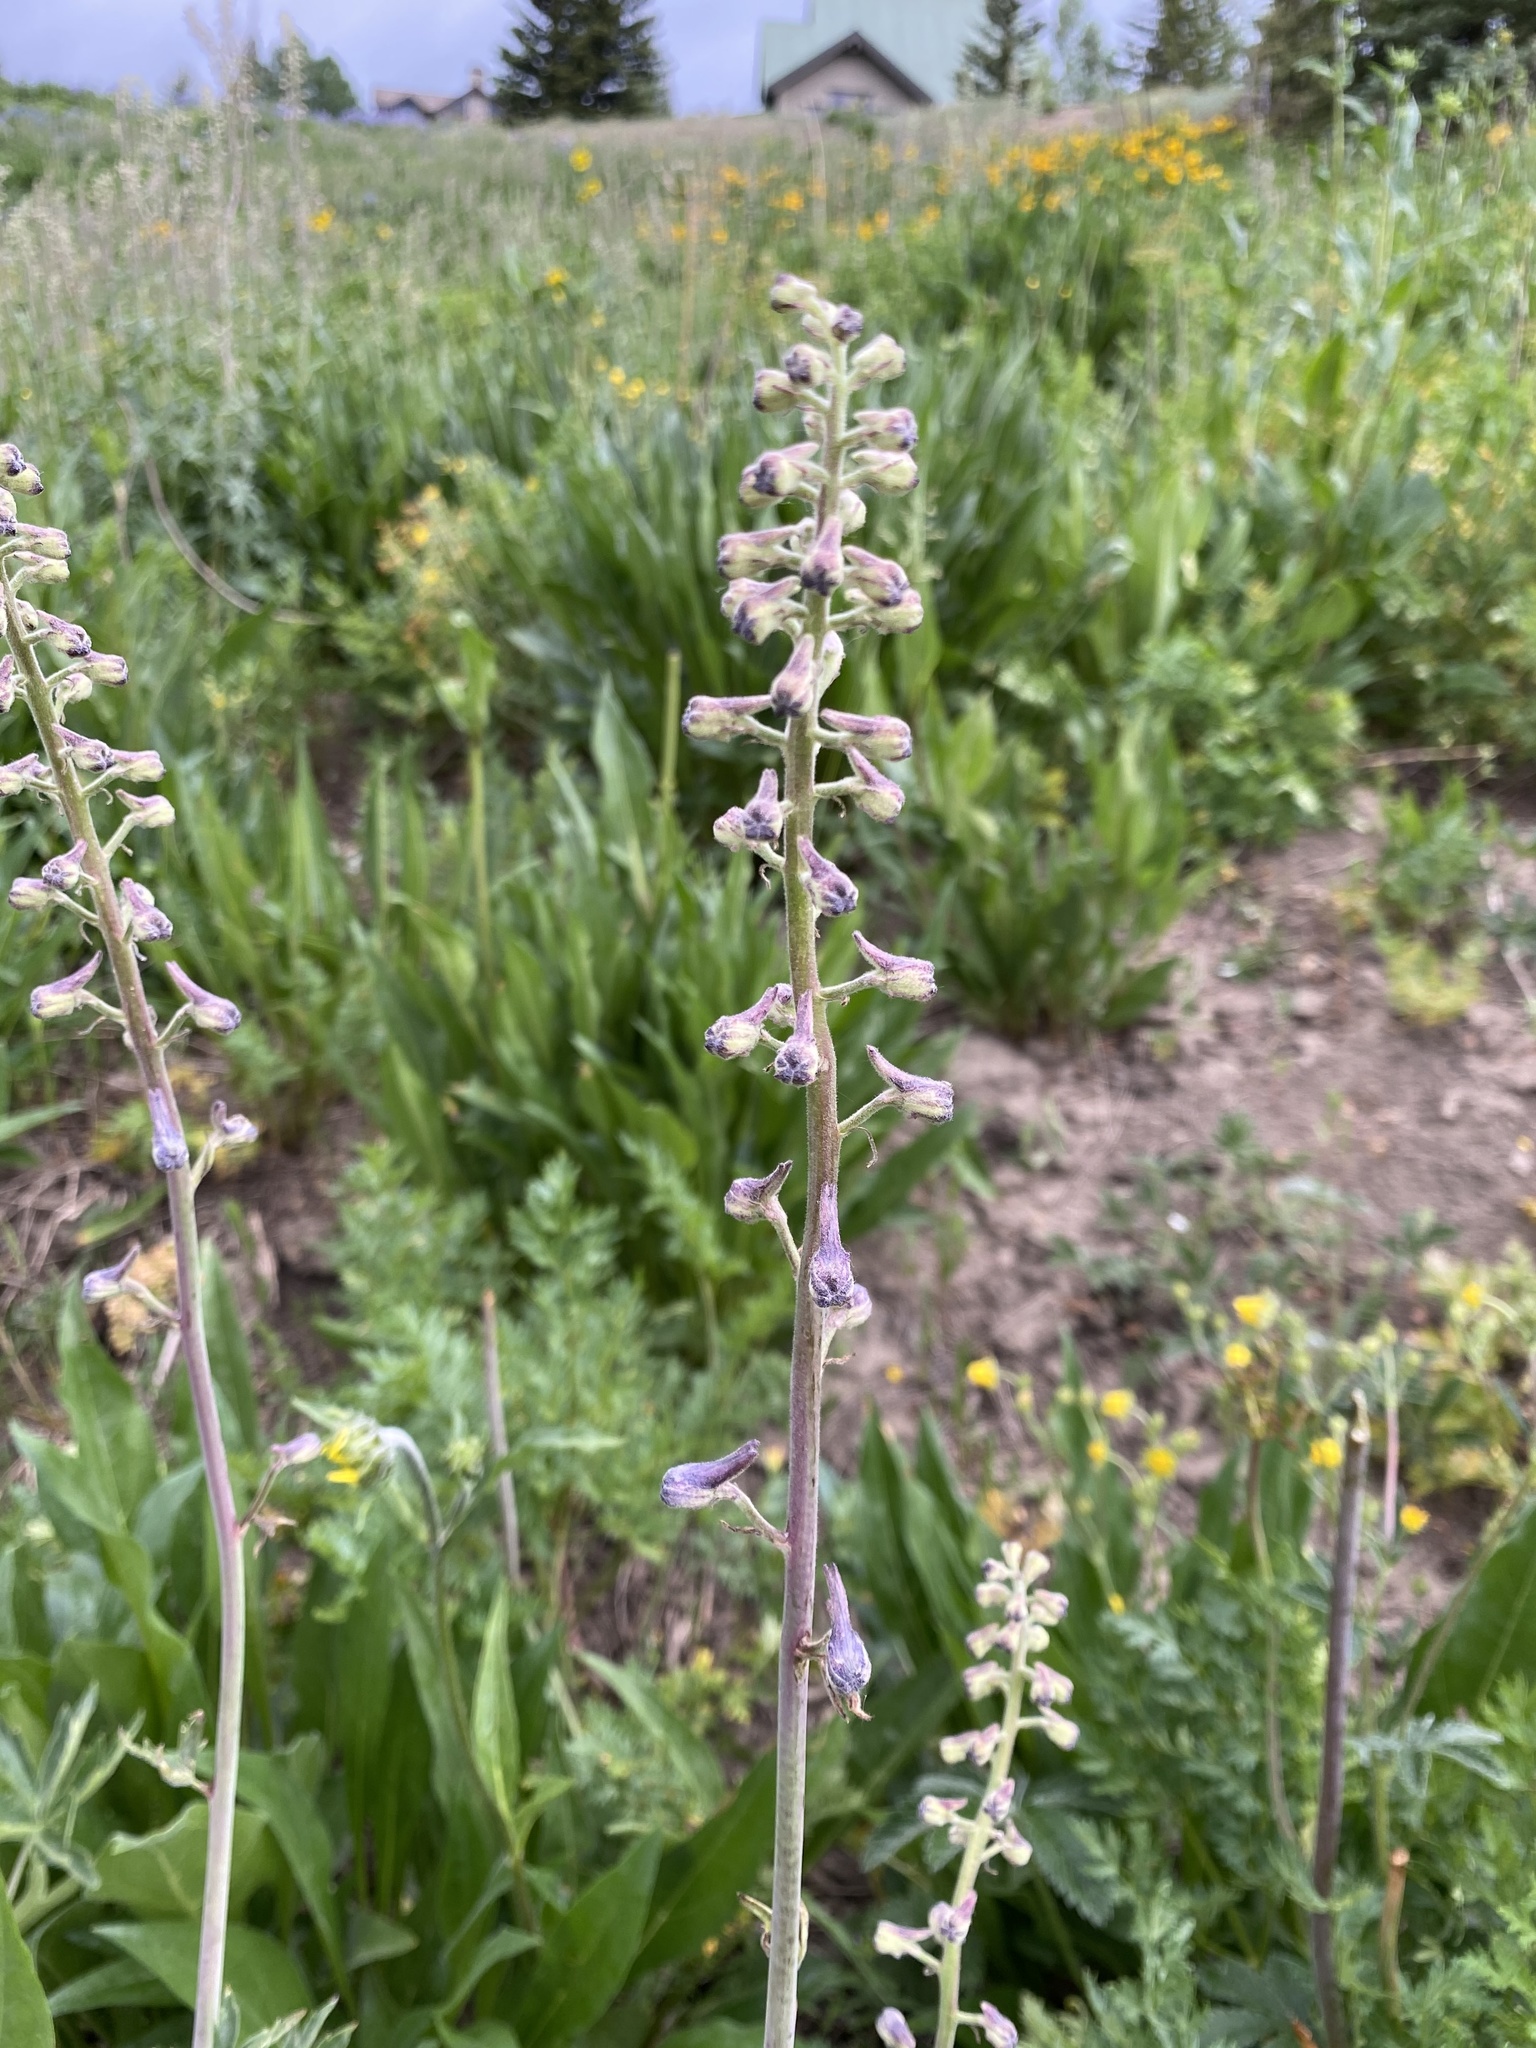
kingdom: Plantae
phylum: Tracheophyta
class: Magnoliopsida
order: Ranunculales
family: Ranunculaceae
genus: Delphinium
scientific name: Delphinium occidentale
